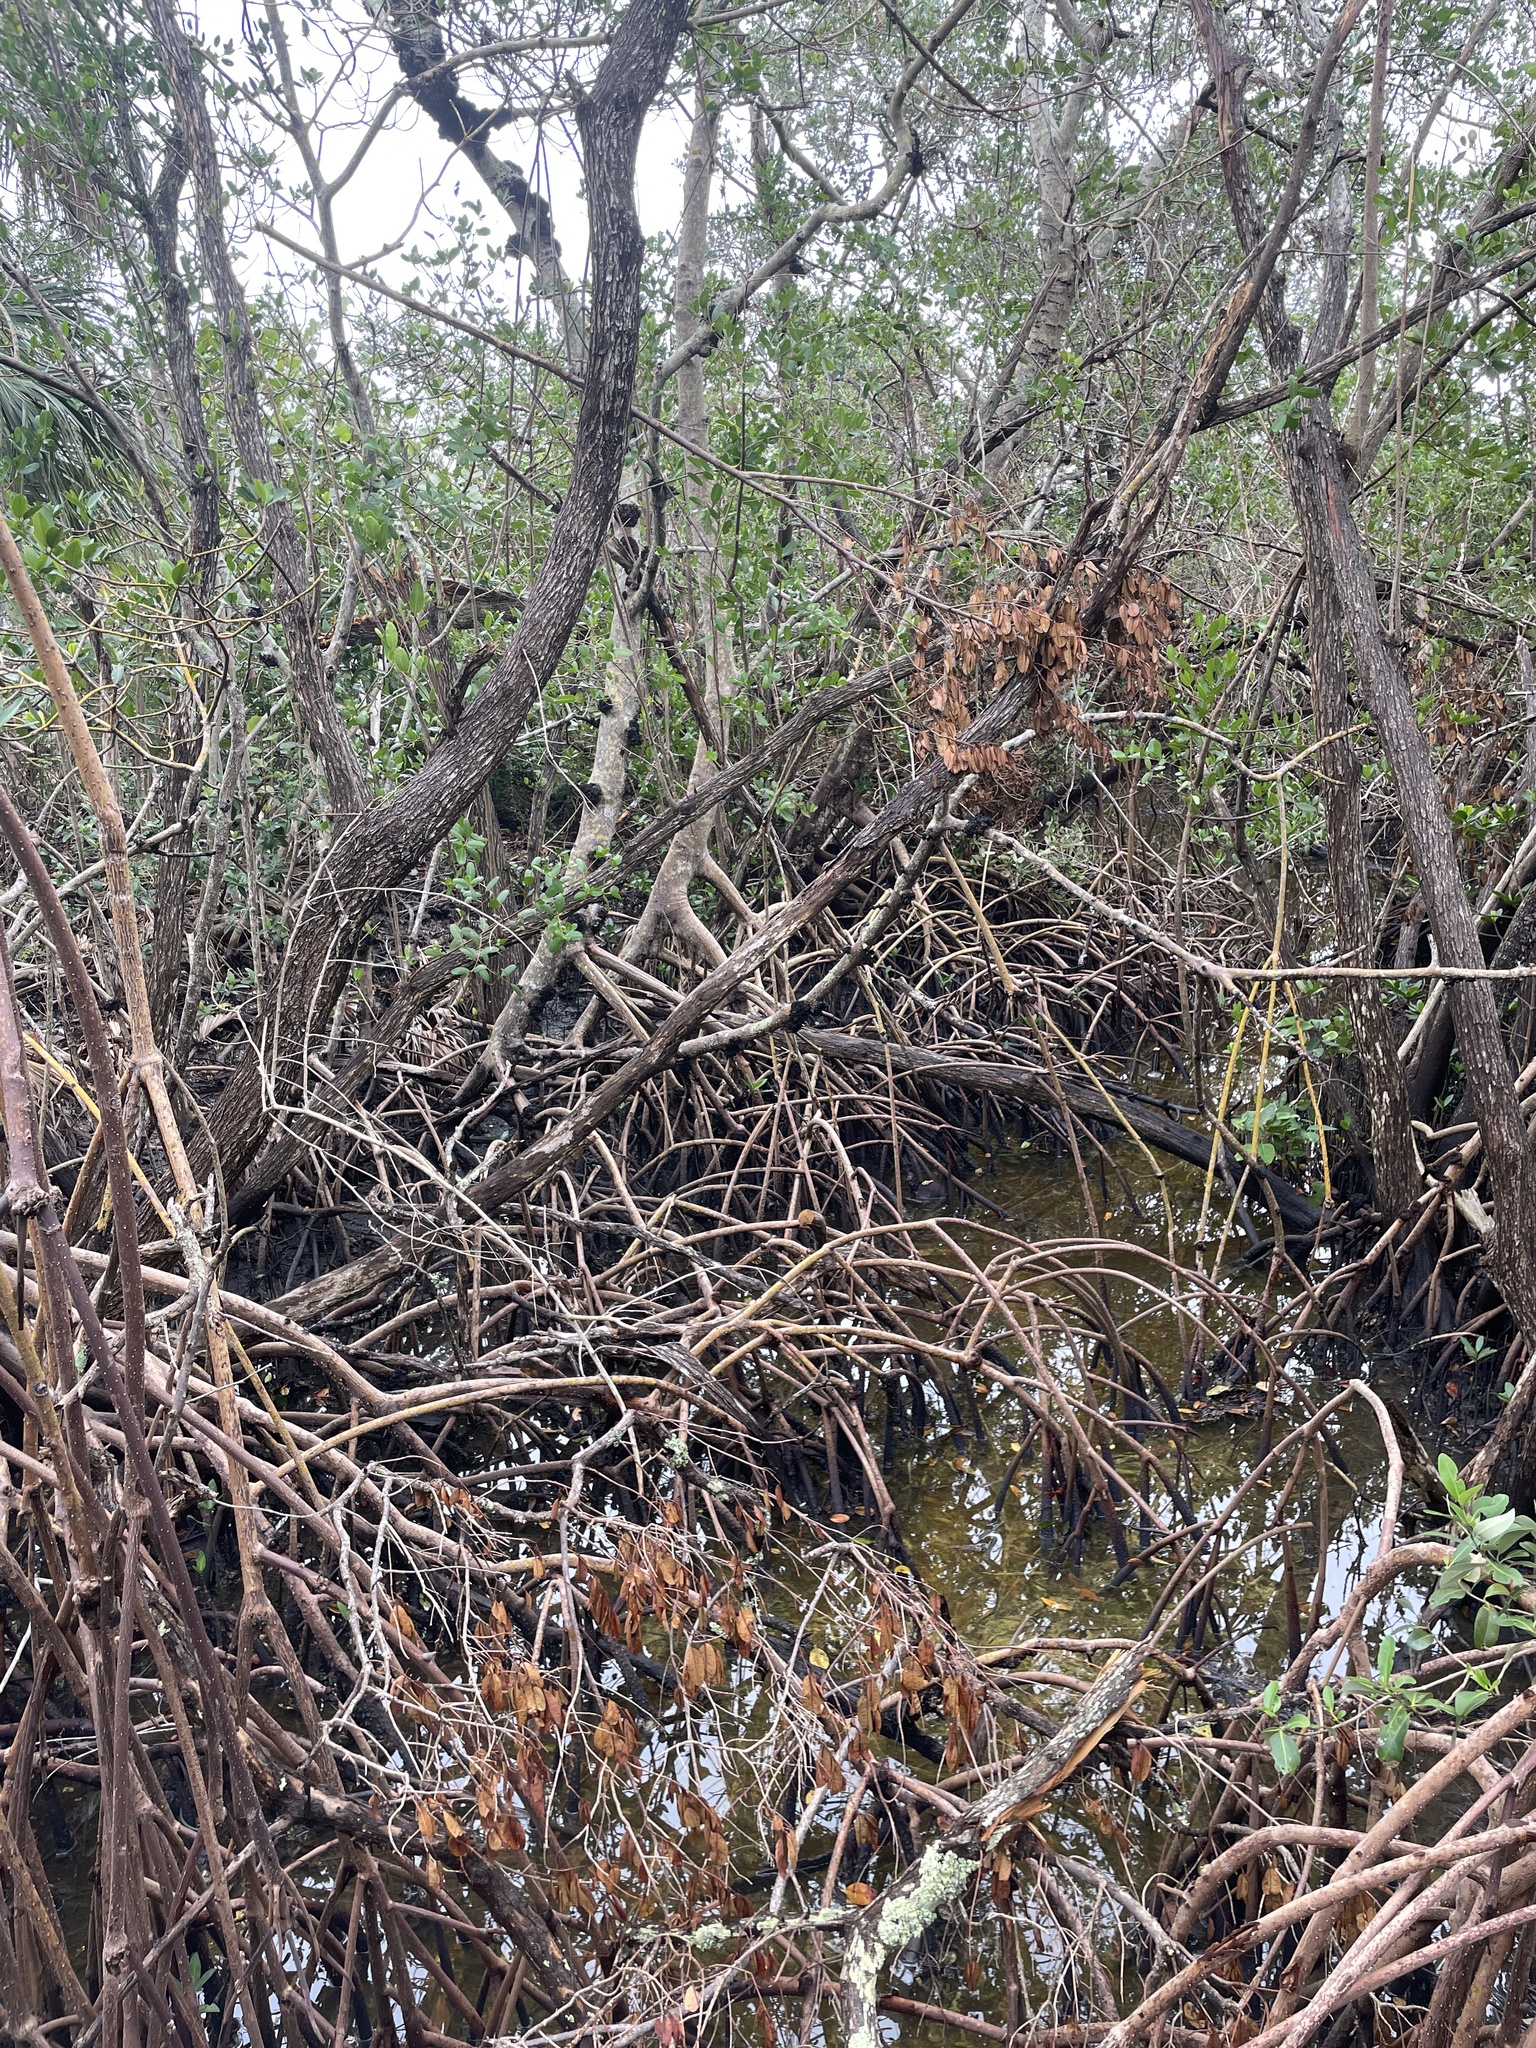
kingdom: Plantae
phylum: Tracheophyta
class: Magnoliopsida
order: Malpighiales
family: Rhizophoraceae
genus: Rhizophora
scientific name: Rhizophora mangle
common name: Red mangrove
